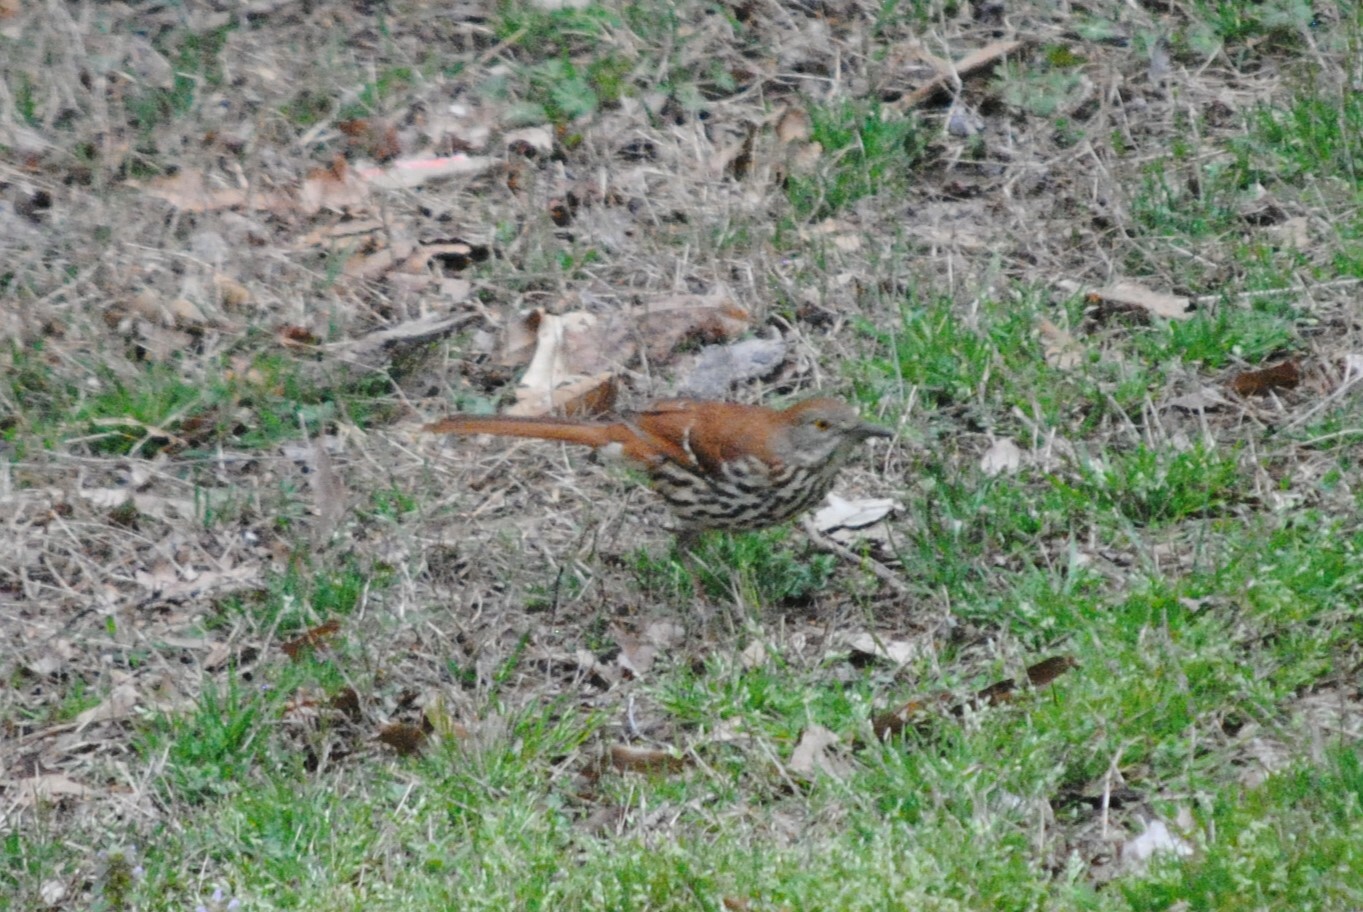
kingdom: Animalia
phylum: Chordata
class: Aves
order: Passeriformes
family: Mimidae
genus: Toxostoma
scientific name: Toxostoma rufum
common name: Brown thrasher
